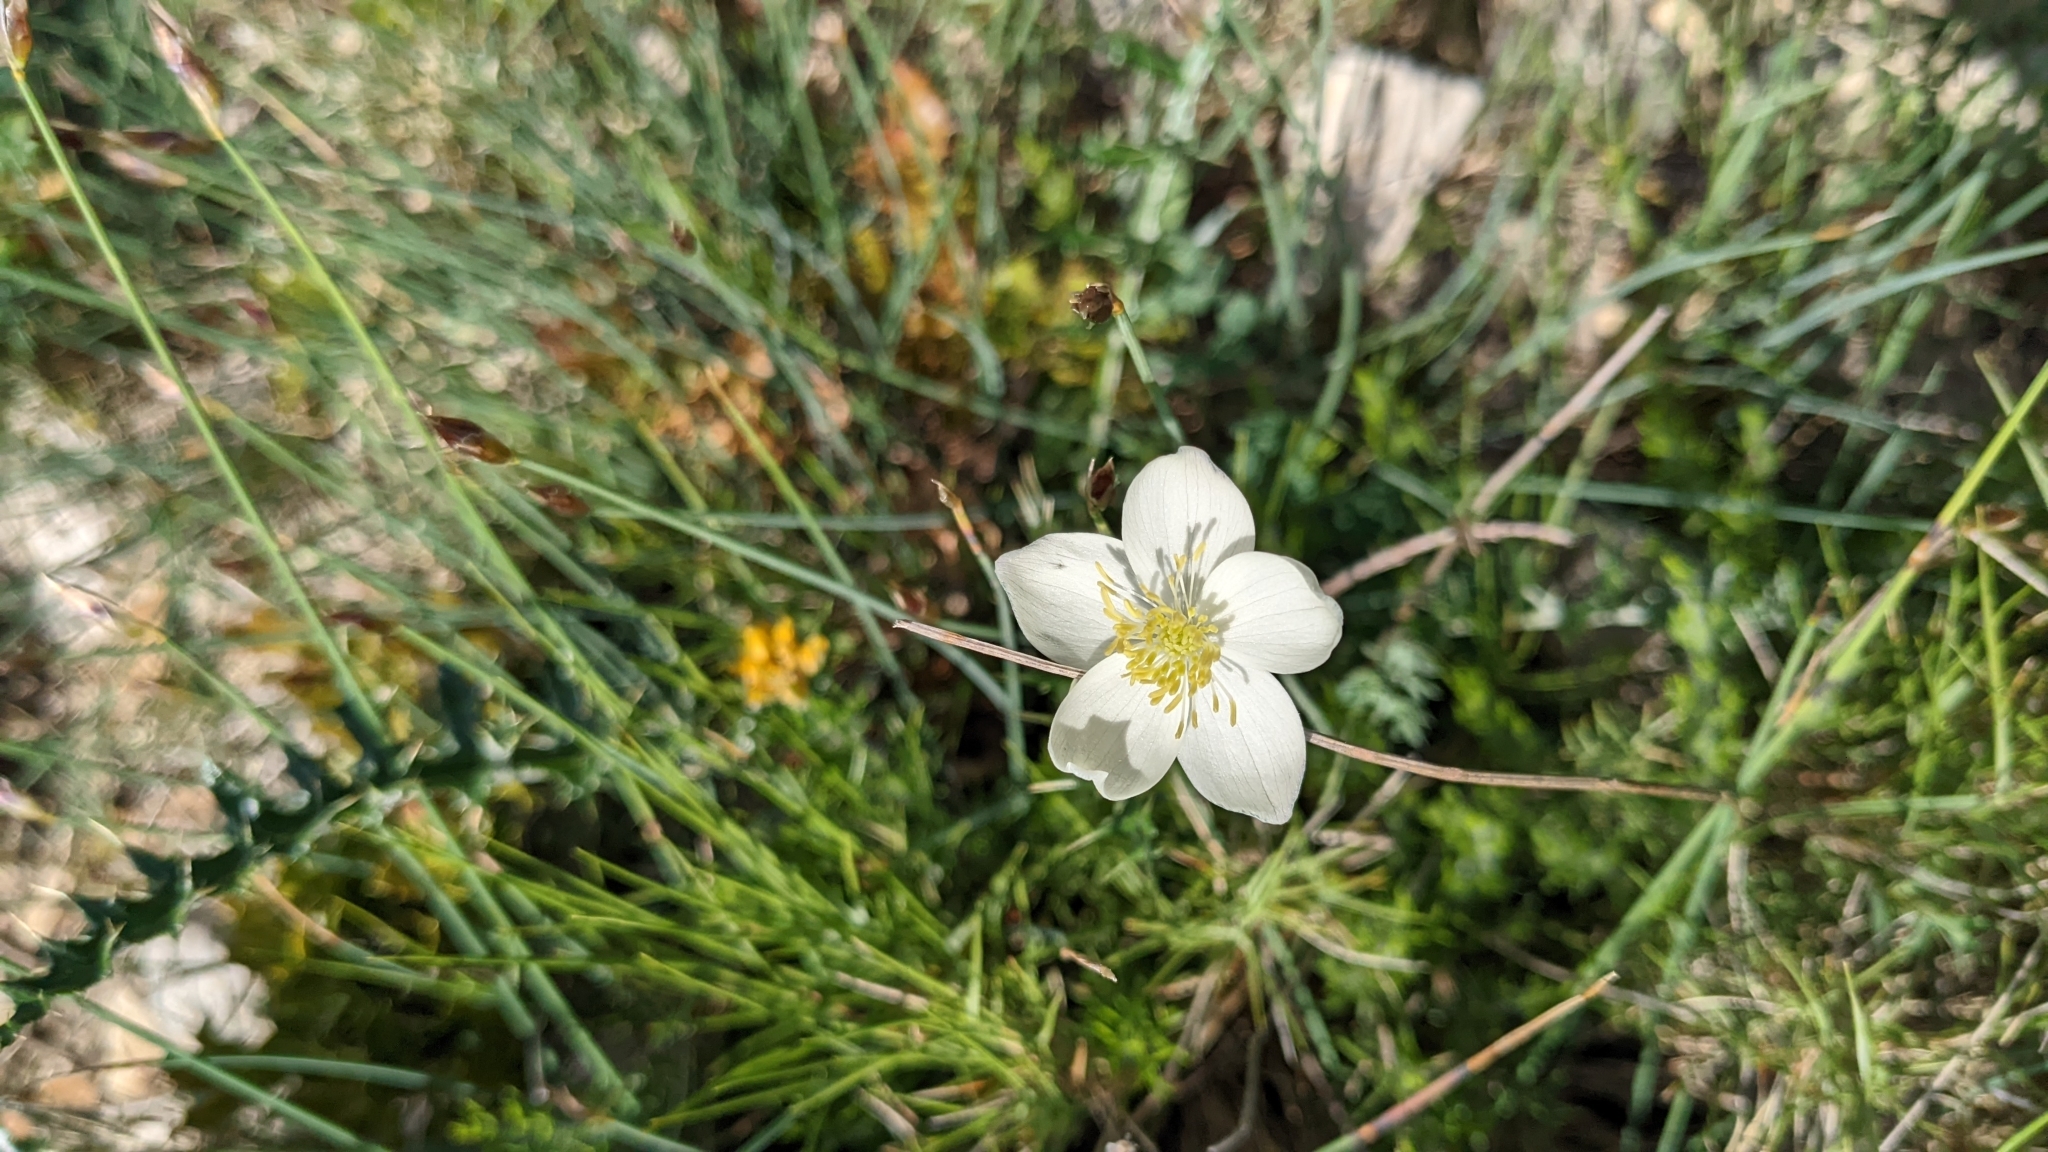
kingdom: Plantae
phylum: Tracheophyta
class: Magnoliopsida
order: Ranunculales
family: Ranunculaceae
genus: Thalictrum
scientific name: Thalictrum tuberosum
